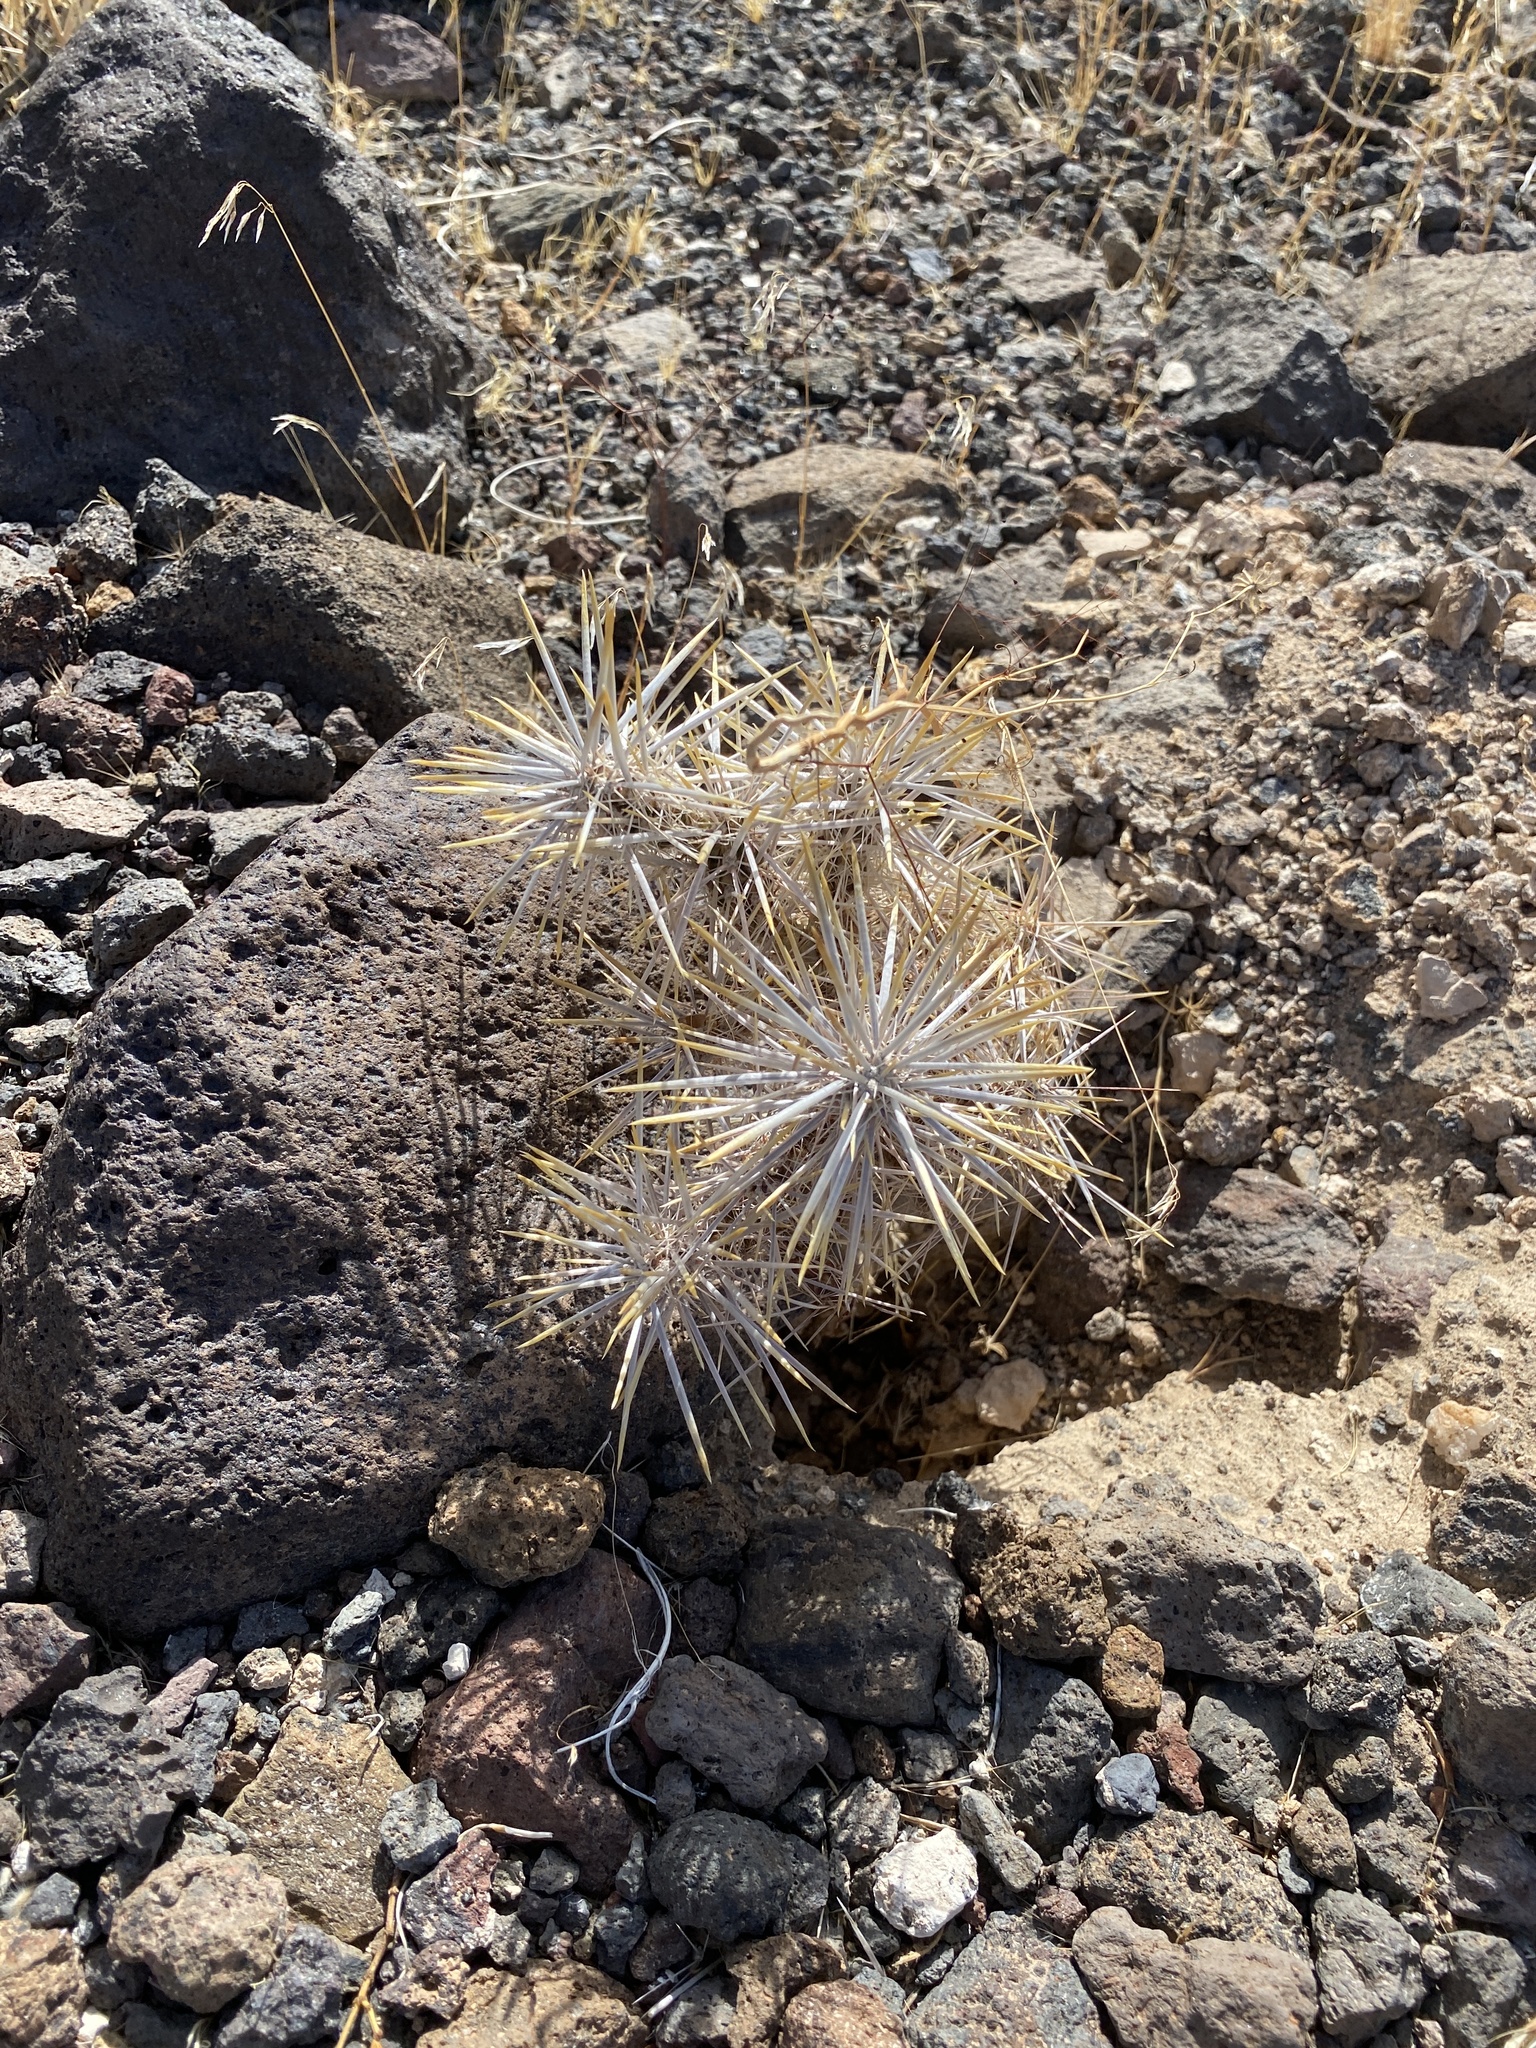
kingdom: Plantae
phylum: Tracheophyta
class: Magnoliopsida
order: Caryophyllales
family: Cactaceae
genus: Cylindropuntia
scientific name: Cylindropuntia echinocarpa
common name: Ground cholla
